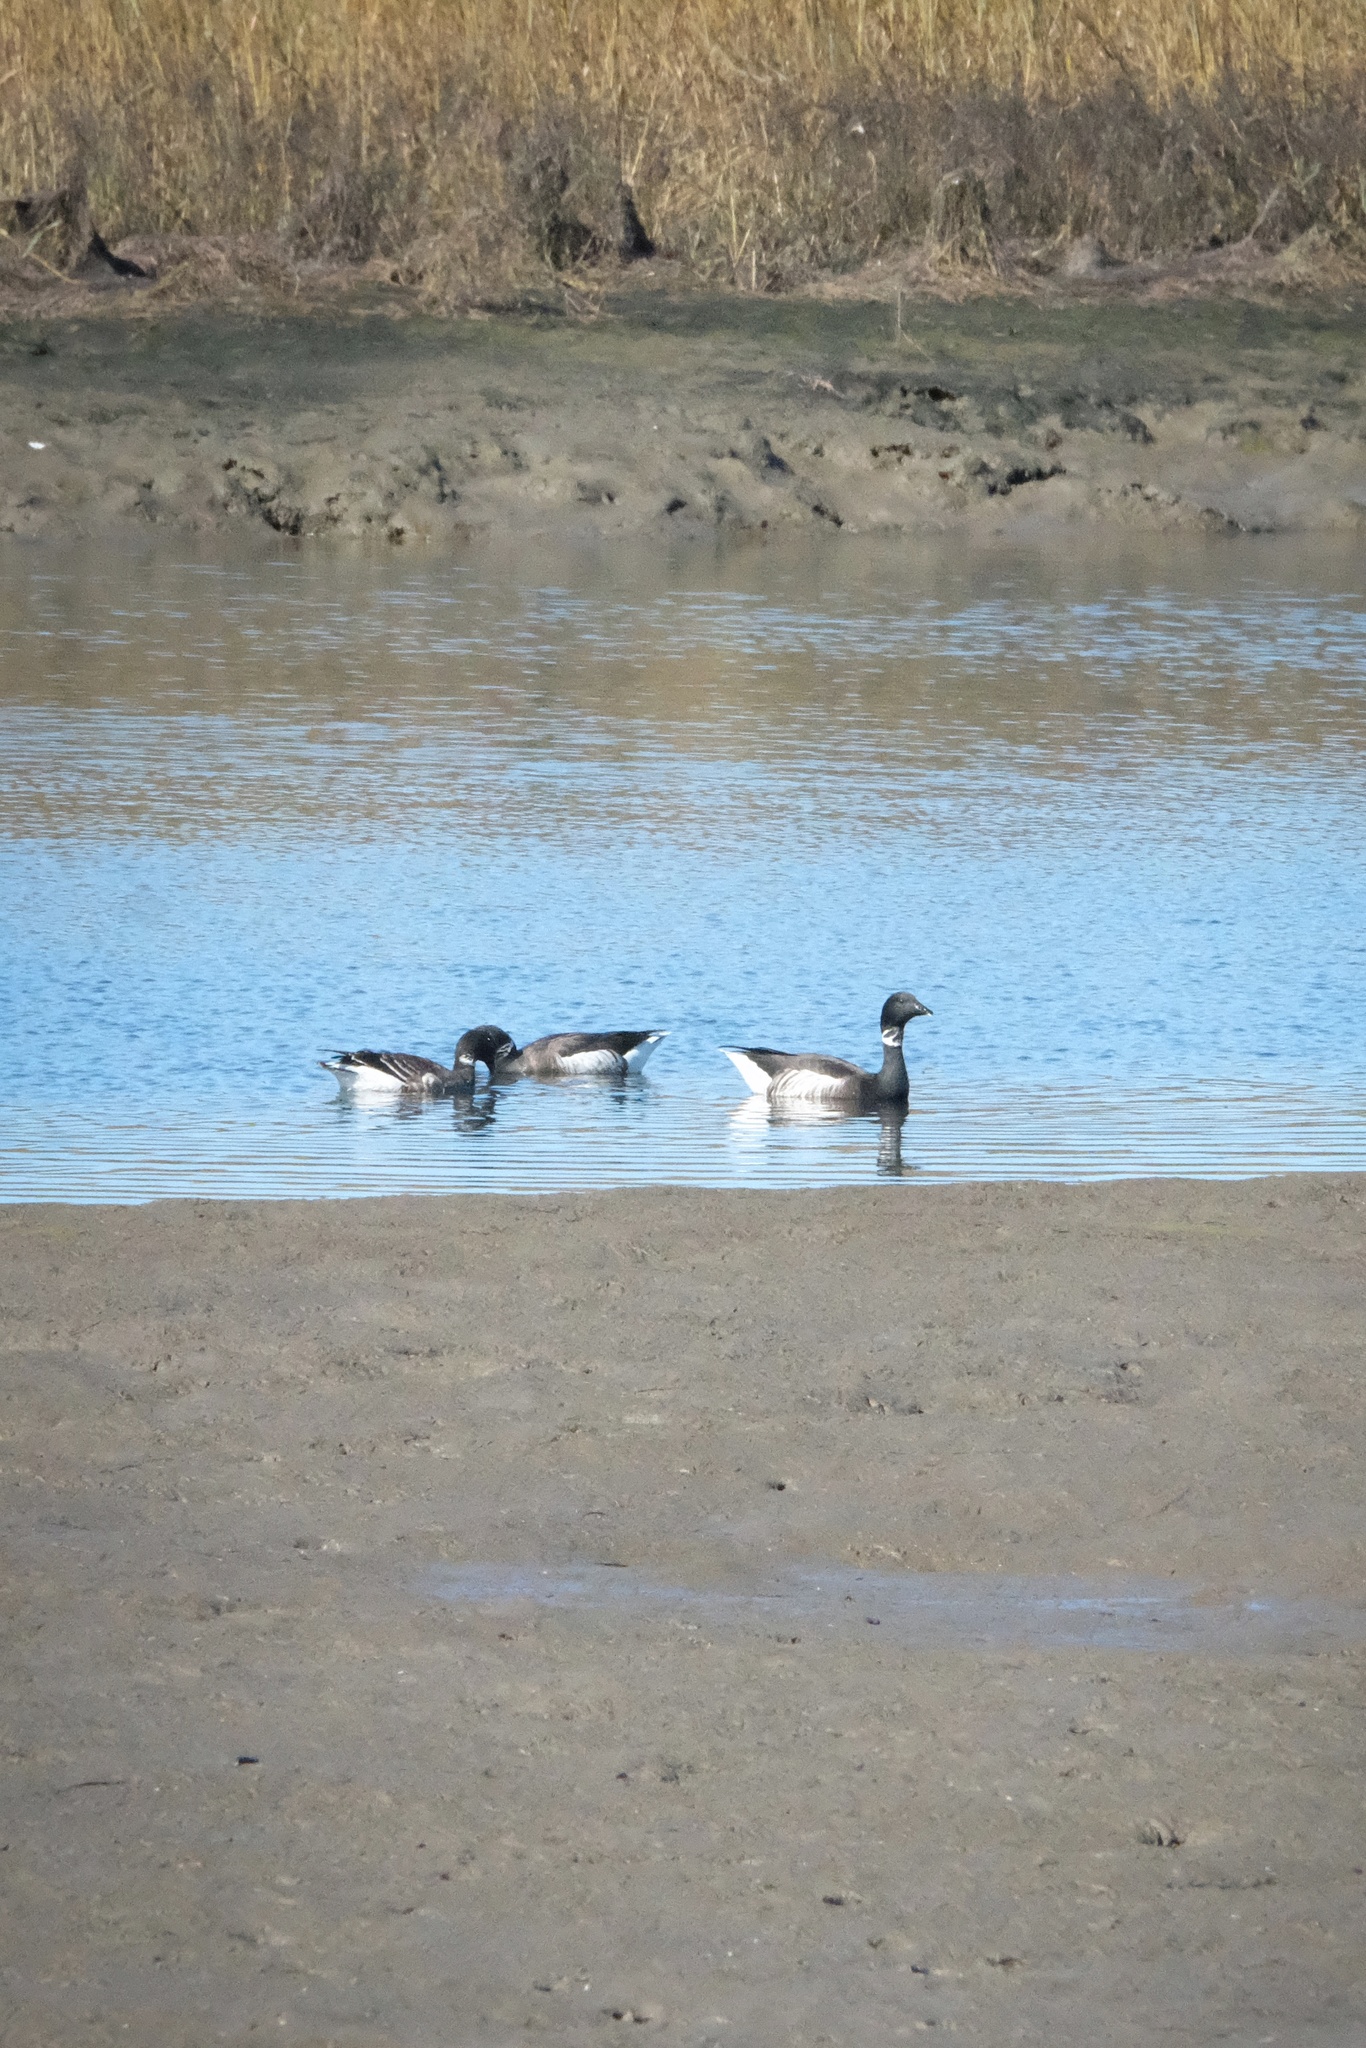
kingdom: Animalia
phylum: Chordata
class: Aves
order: Anseriformes
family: Anatidae
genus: Branta
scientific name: Branta bernicla
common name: Brant goose
